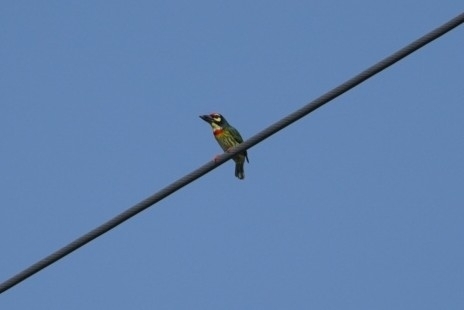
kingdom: Animalia
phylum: Chordata
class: Aves
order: Piciformes
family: Megalaimidae
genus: Psilopogon
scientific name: Psilopogon haemacephalus
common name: Coppersmith barbet
